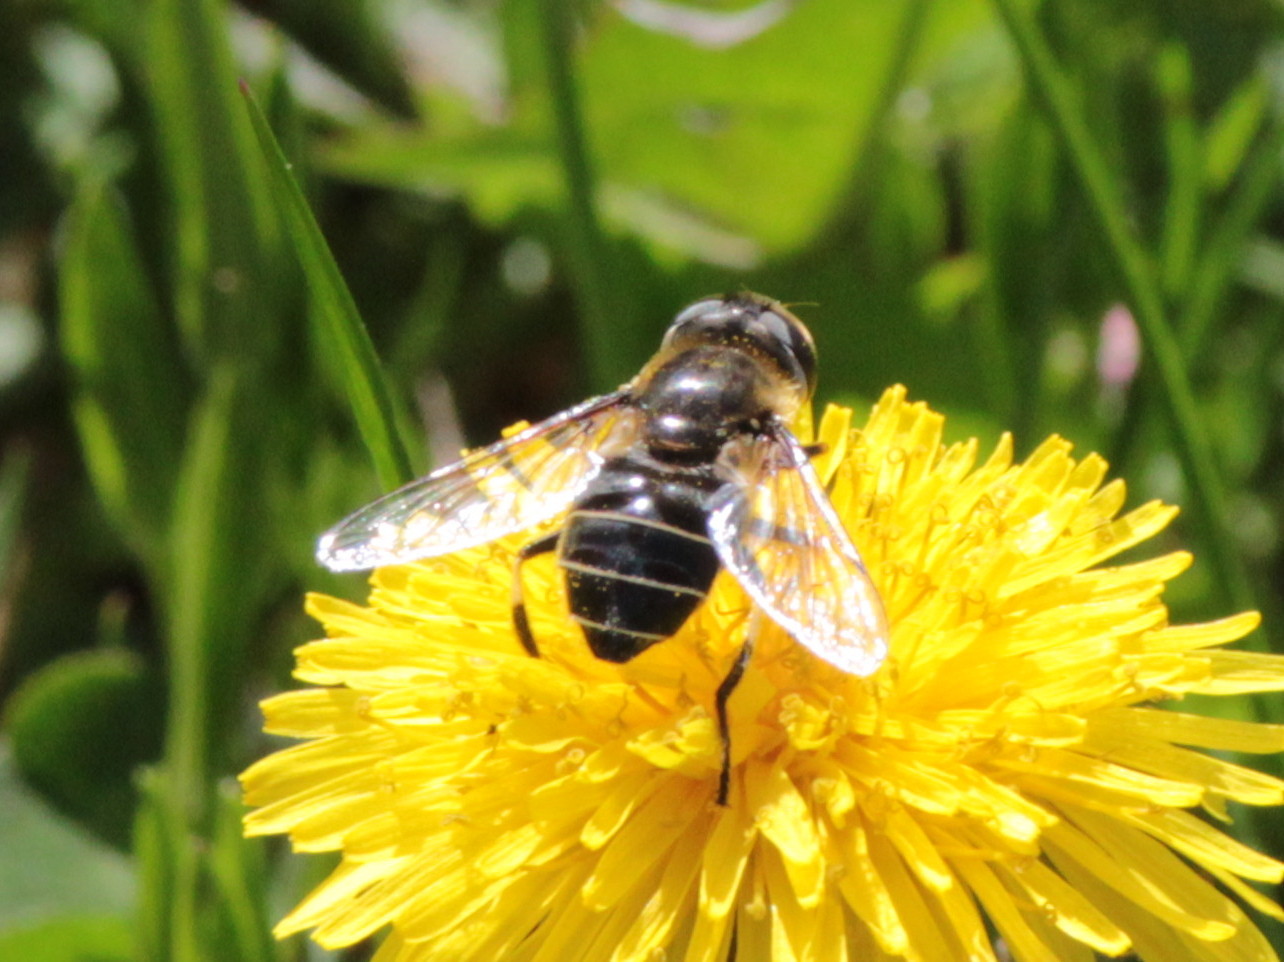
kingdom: Animalia
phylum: Arthropoda
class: Insecta
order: Diptera
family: Syrphidae
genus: Eristalis
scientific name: Eristalis dimidiata
